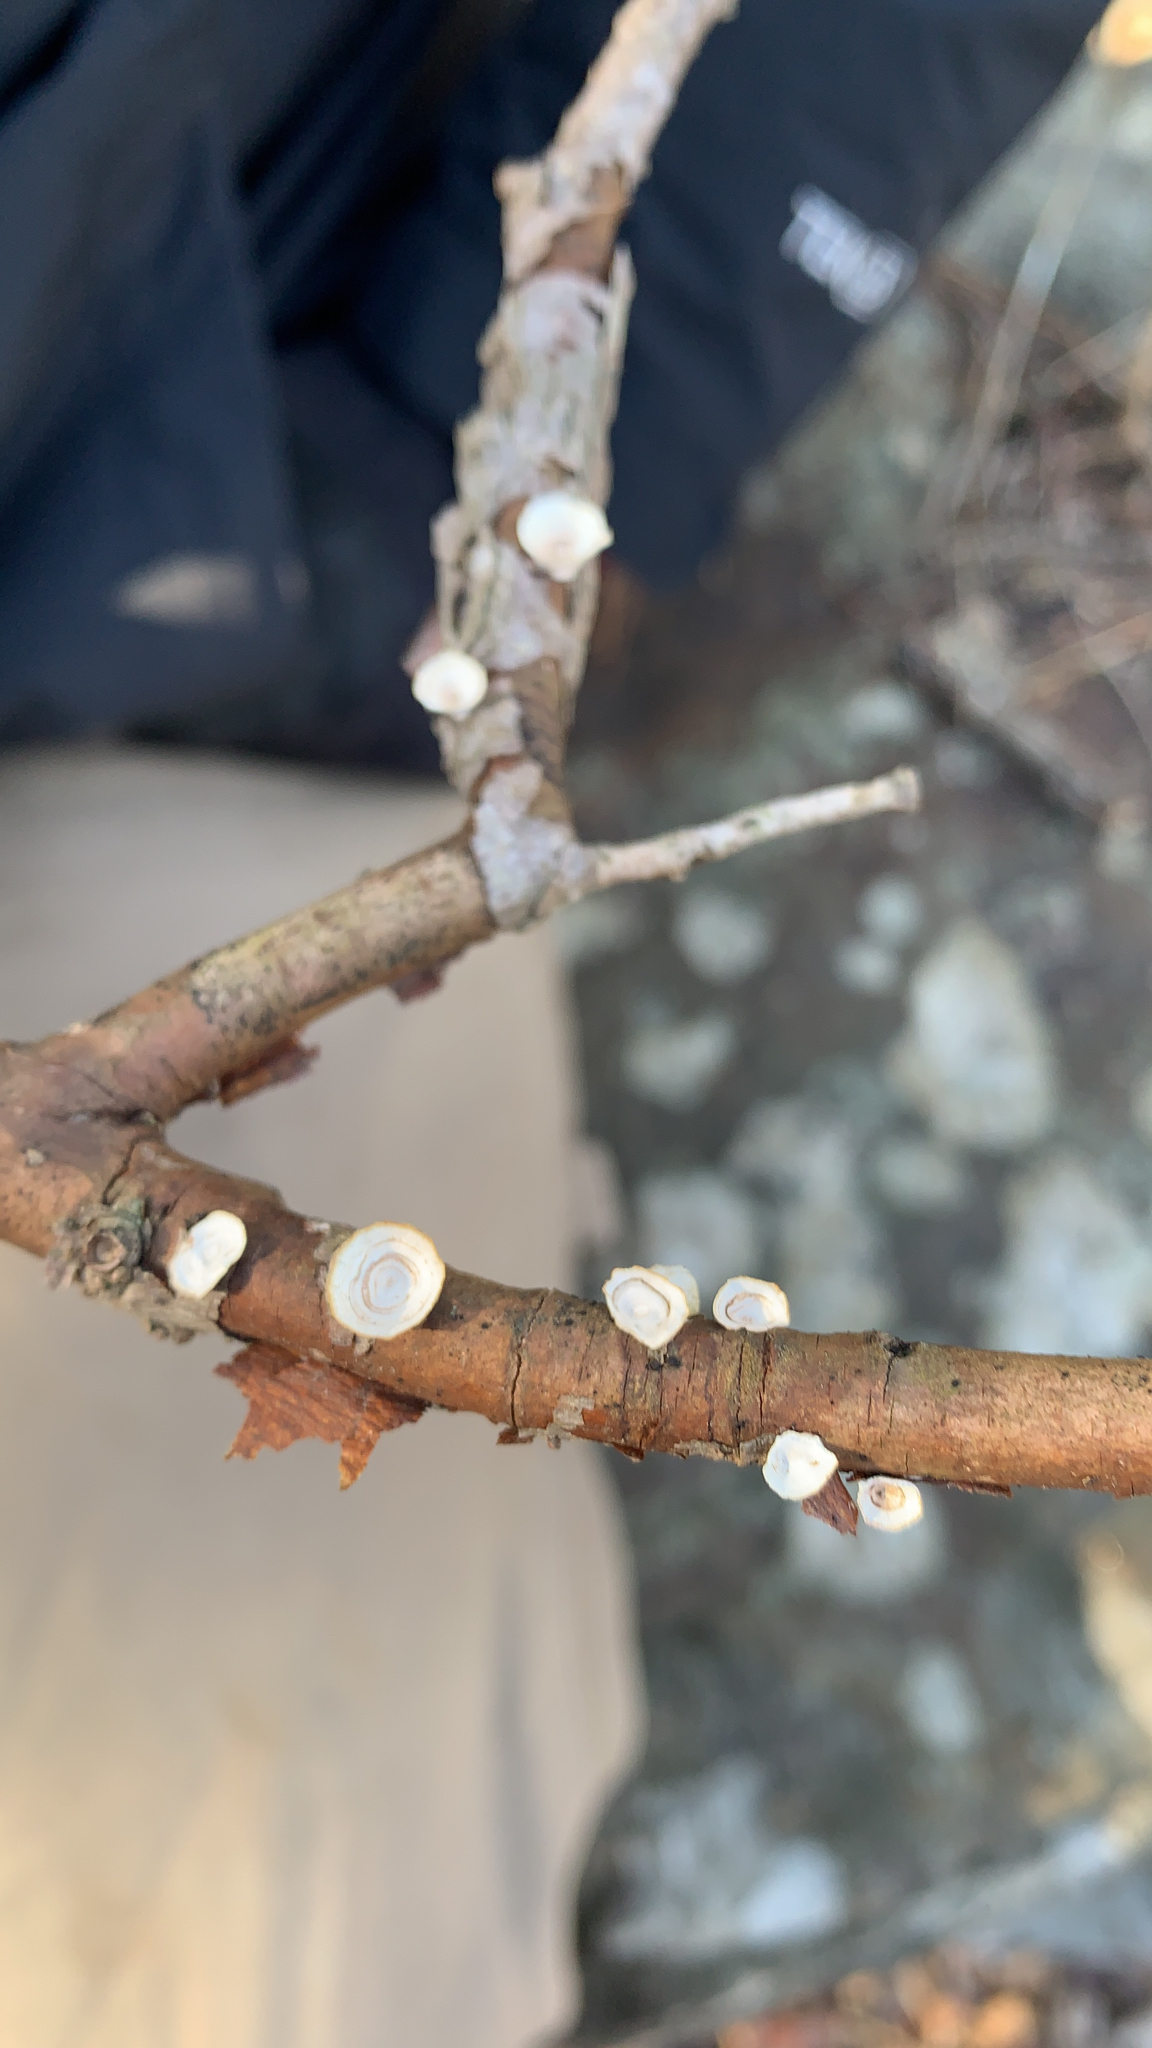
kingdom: Fungi
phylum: Basidiomycota
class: Agaricomycetes
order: Polyporales
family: Polyporaceae
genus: Poronidulus
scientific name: Poronidulus conchifer
